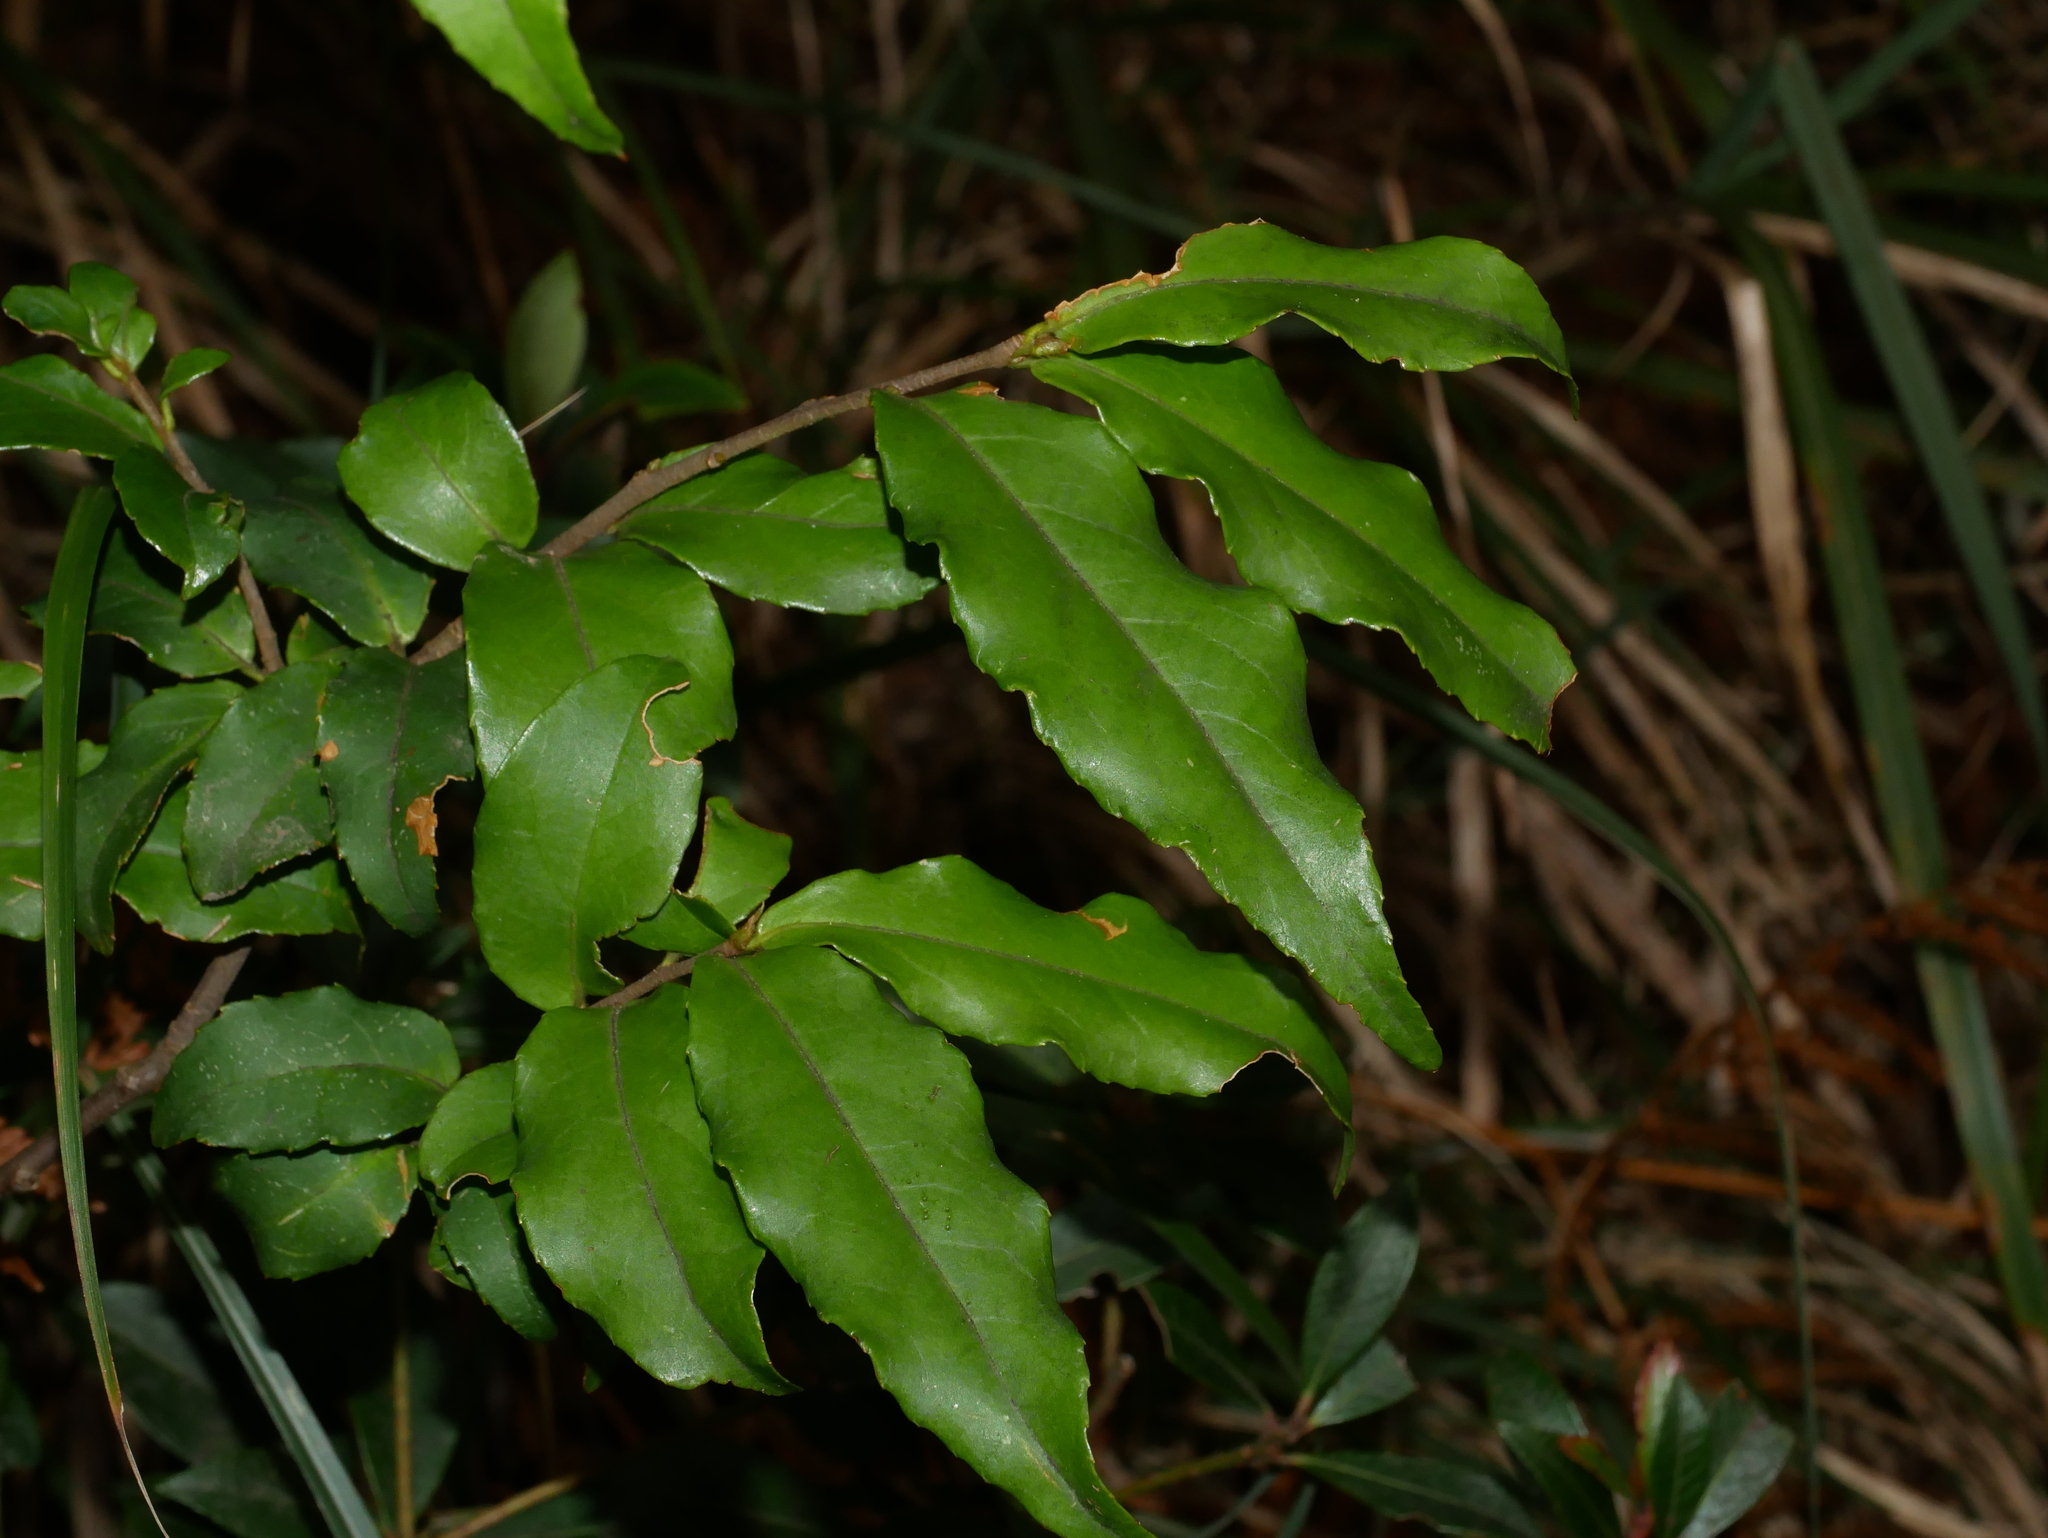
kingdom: Plantae
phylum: Tracheophyta
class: Magnoliopsida
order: Ericales
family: Symplocaceae
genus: Symplocos
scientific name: Symplocos lancifolia
